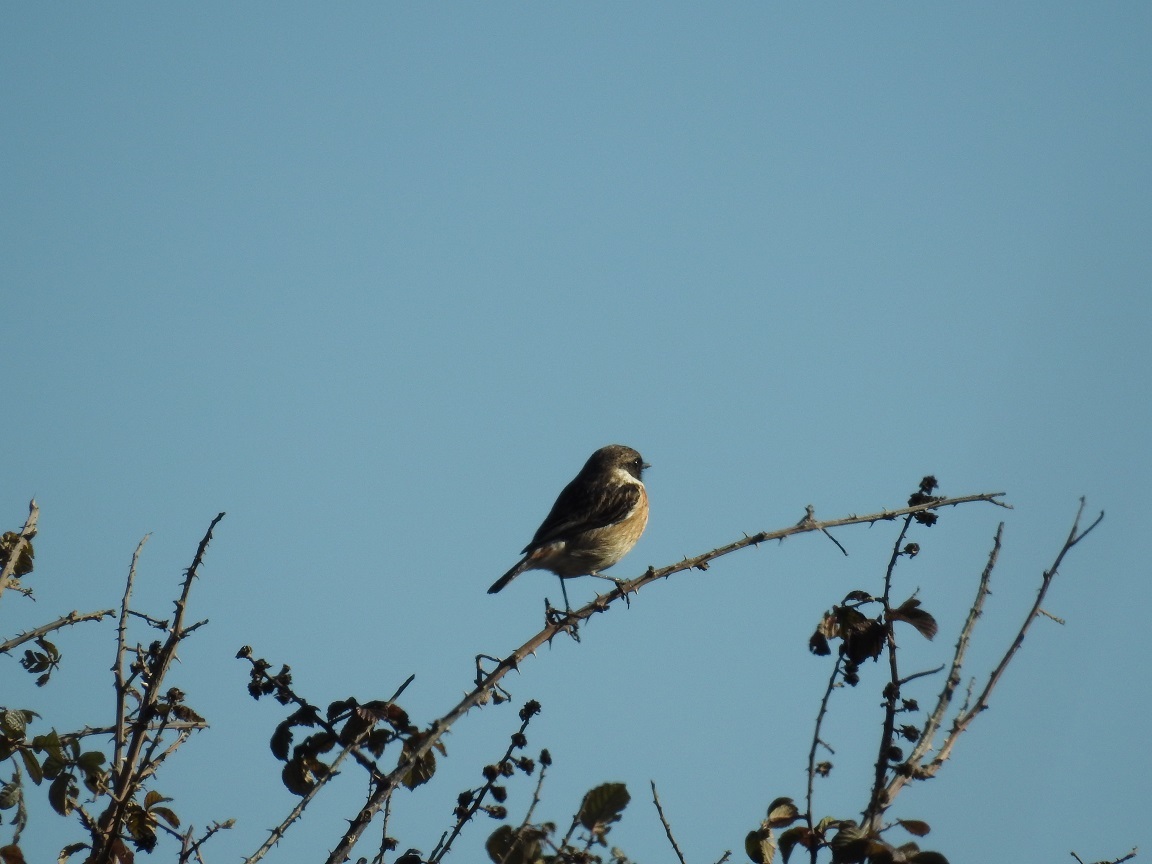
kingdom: Animalia
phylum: Chordata
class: Aves
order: Passeriformes
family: Muscicapidae
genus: Saxicola
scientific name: Saxicola rubicola
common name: European stonechat
